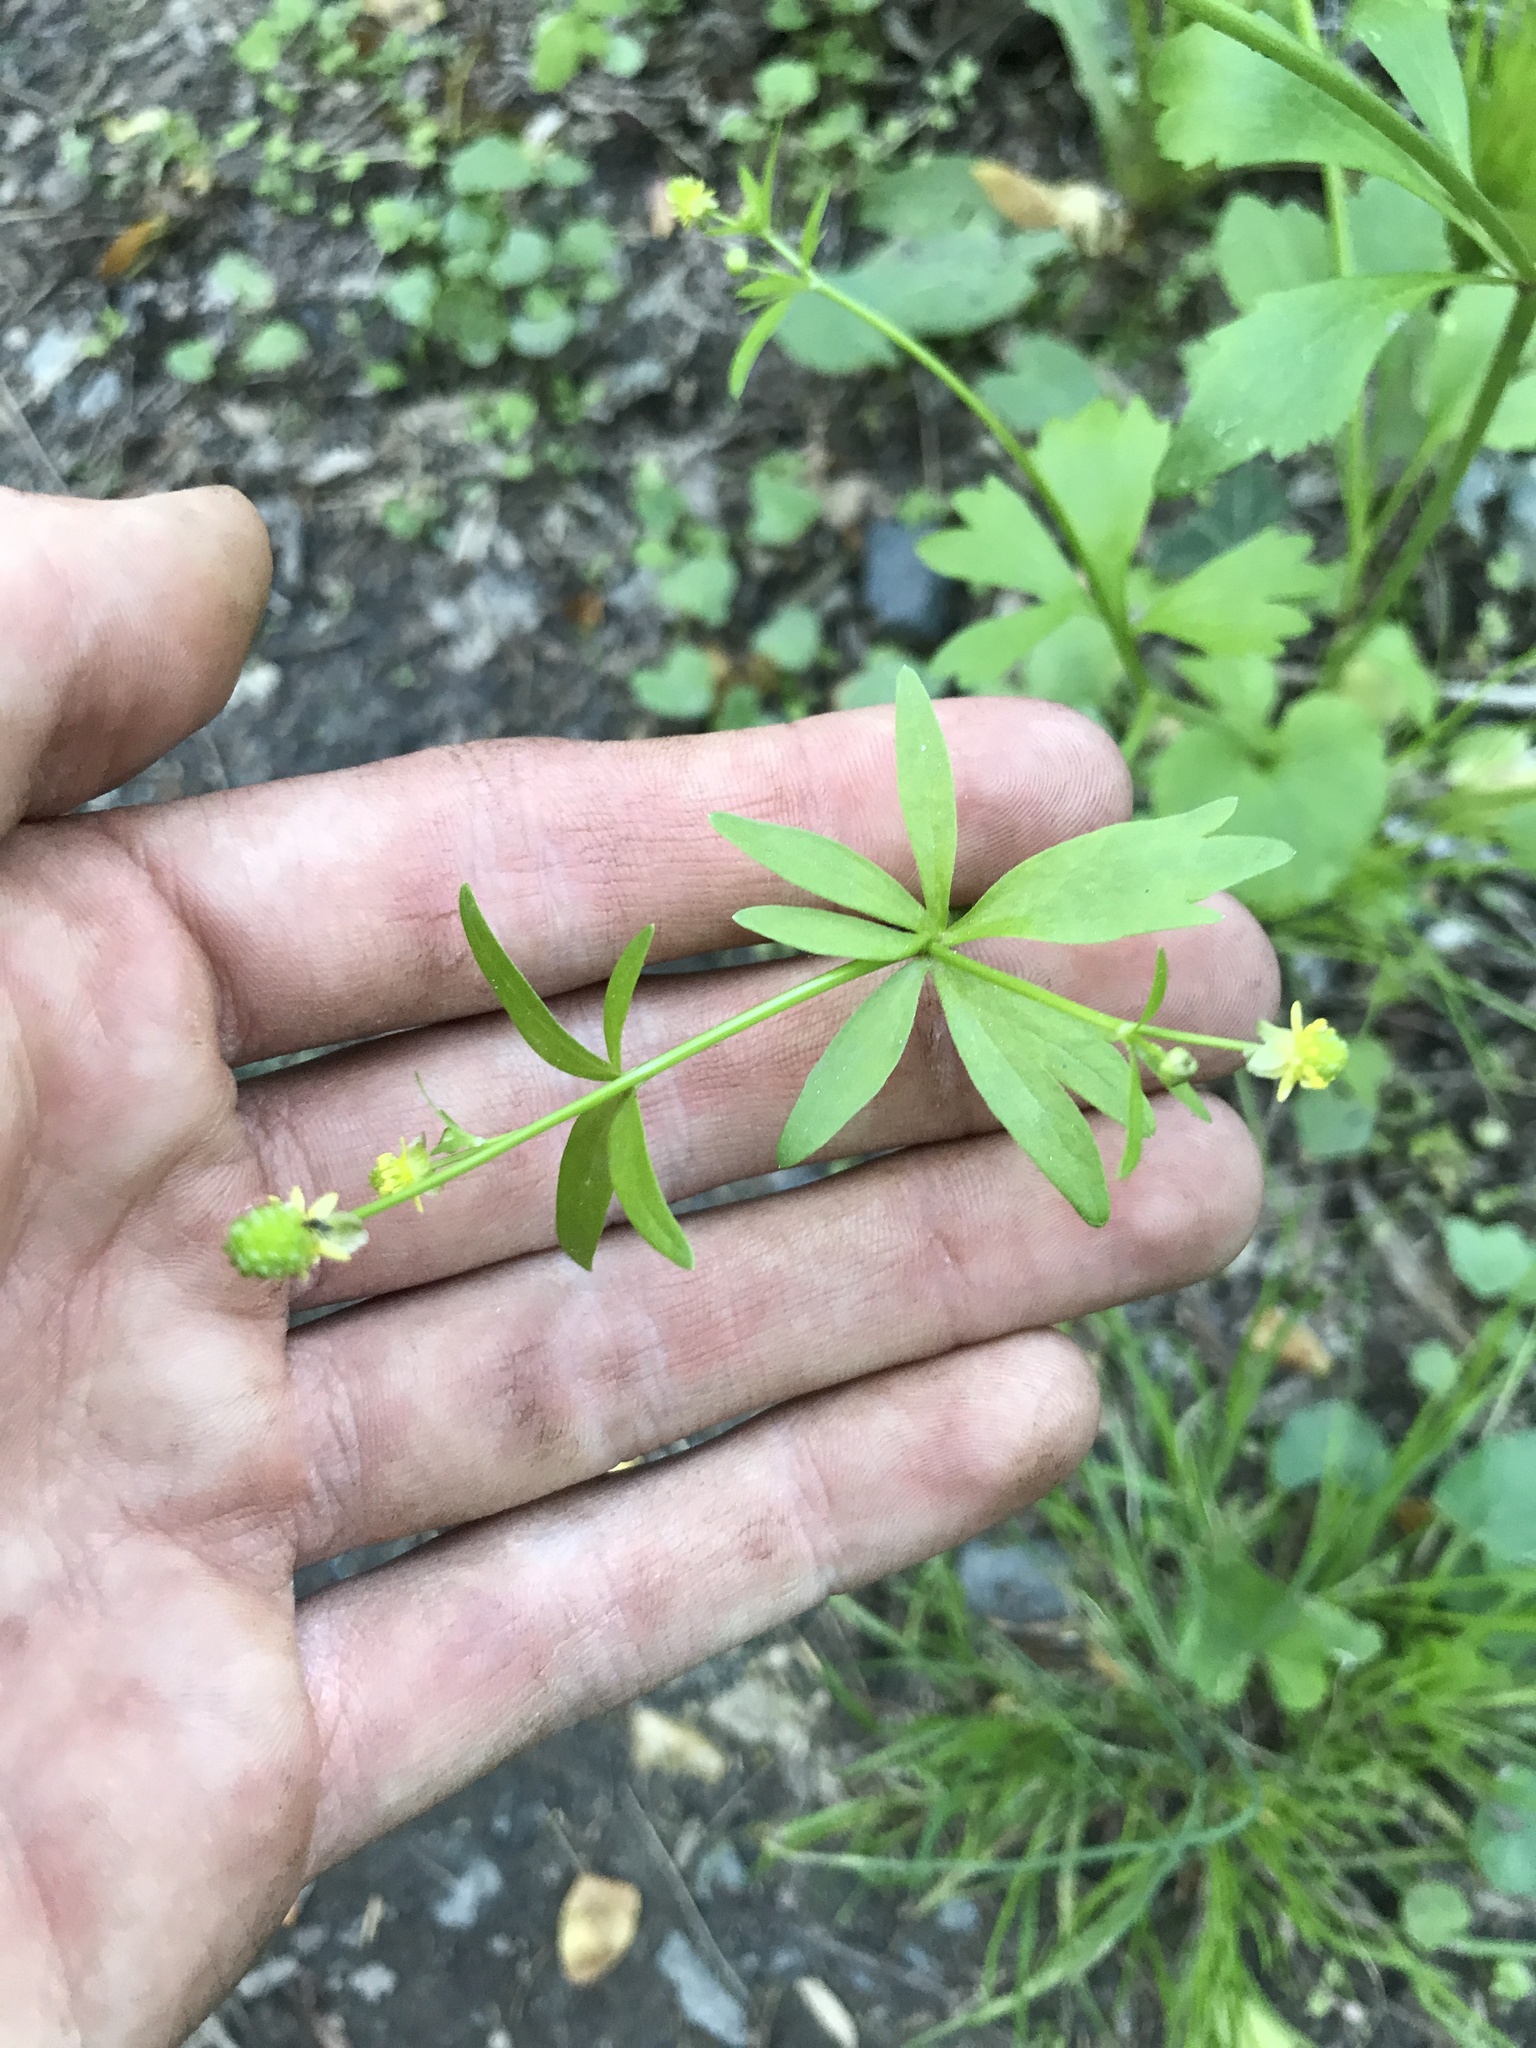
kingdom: Plantae
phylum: Tracheophyta
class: Magnoliopsida
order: Ranunculales
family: Ranunculaceae
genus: Ranunculus
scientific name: Ranunculus abortivus
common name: Early wood buttercup
